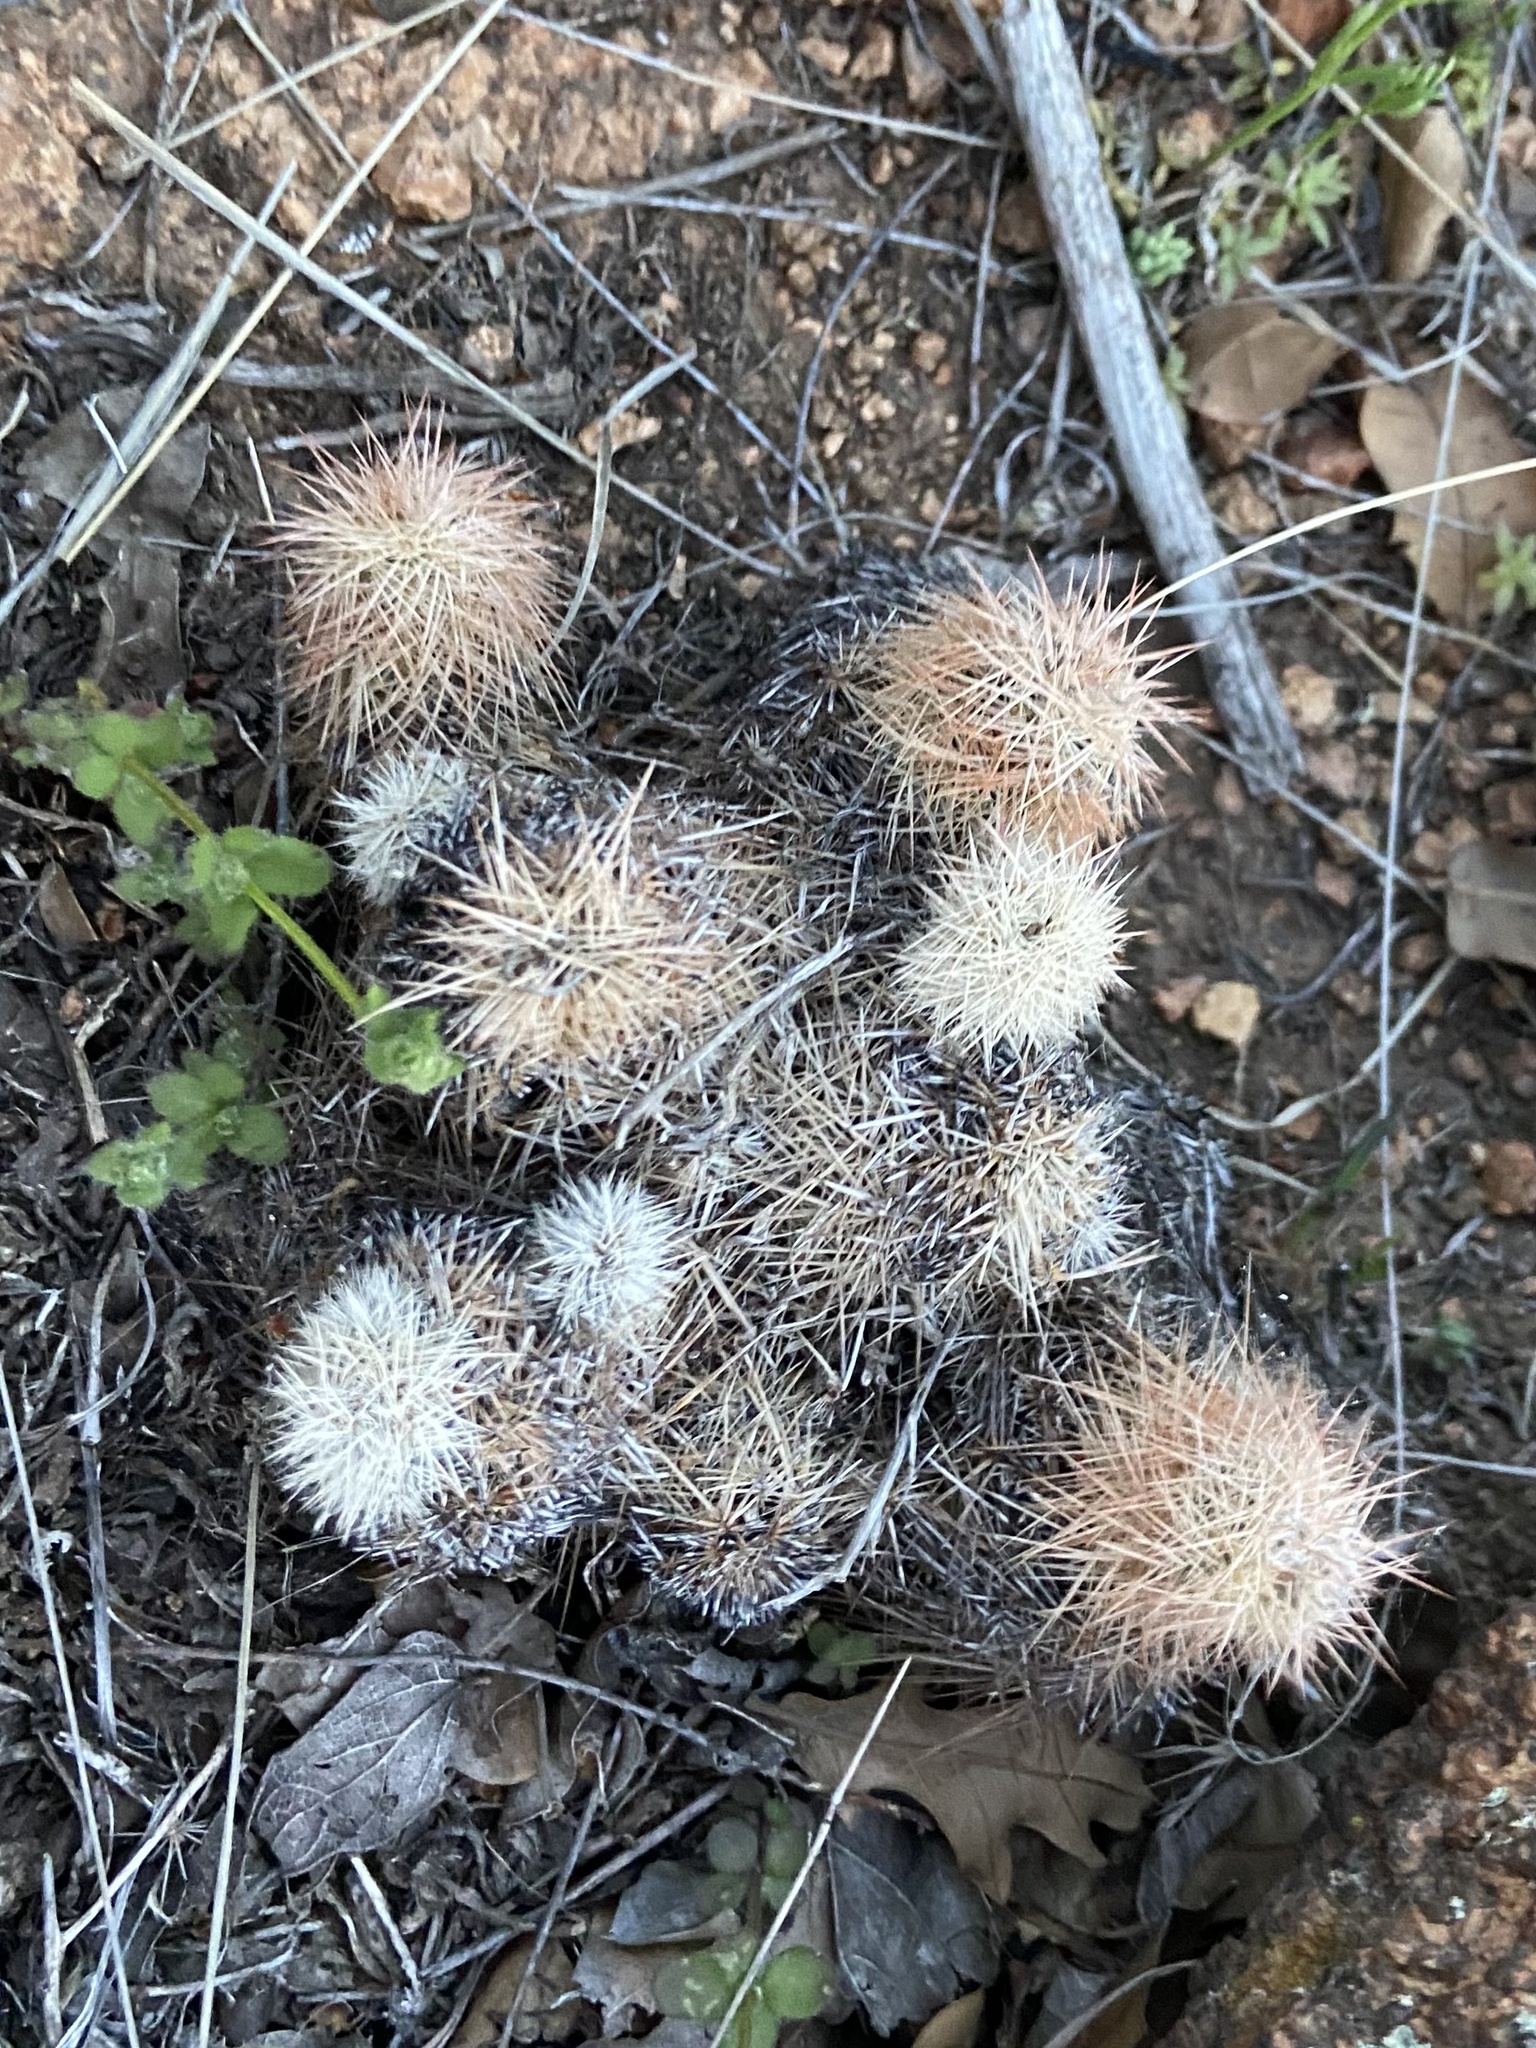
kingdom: Plantae
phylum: Tracheophyta
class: Magnoliopsida
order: Caryophyllales
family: Cactaceae
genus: Echinocereus
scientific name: Echinocereus reichenbachii
